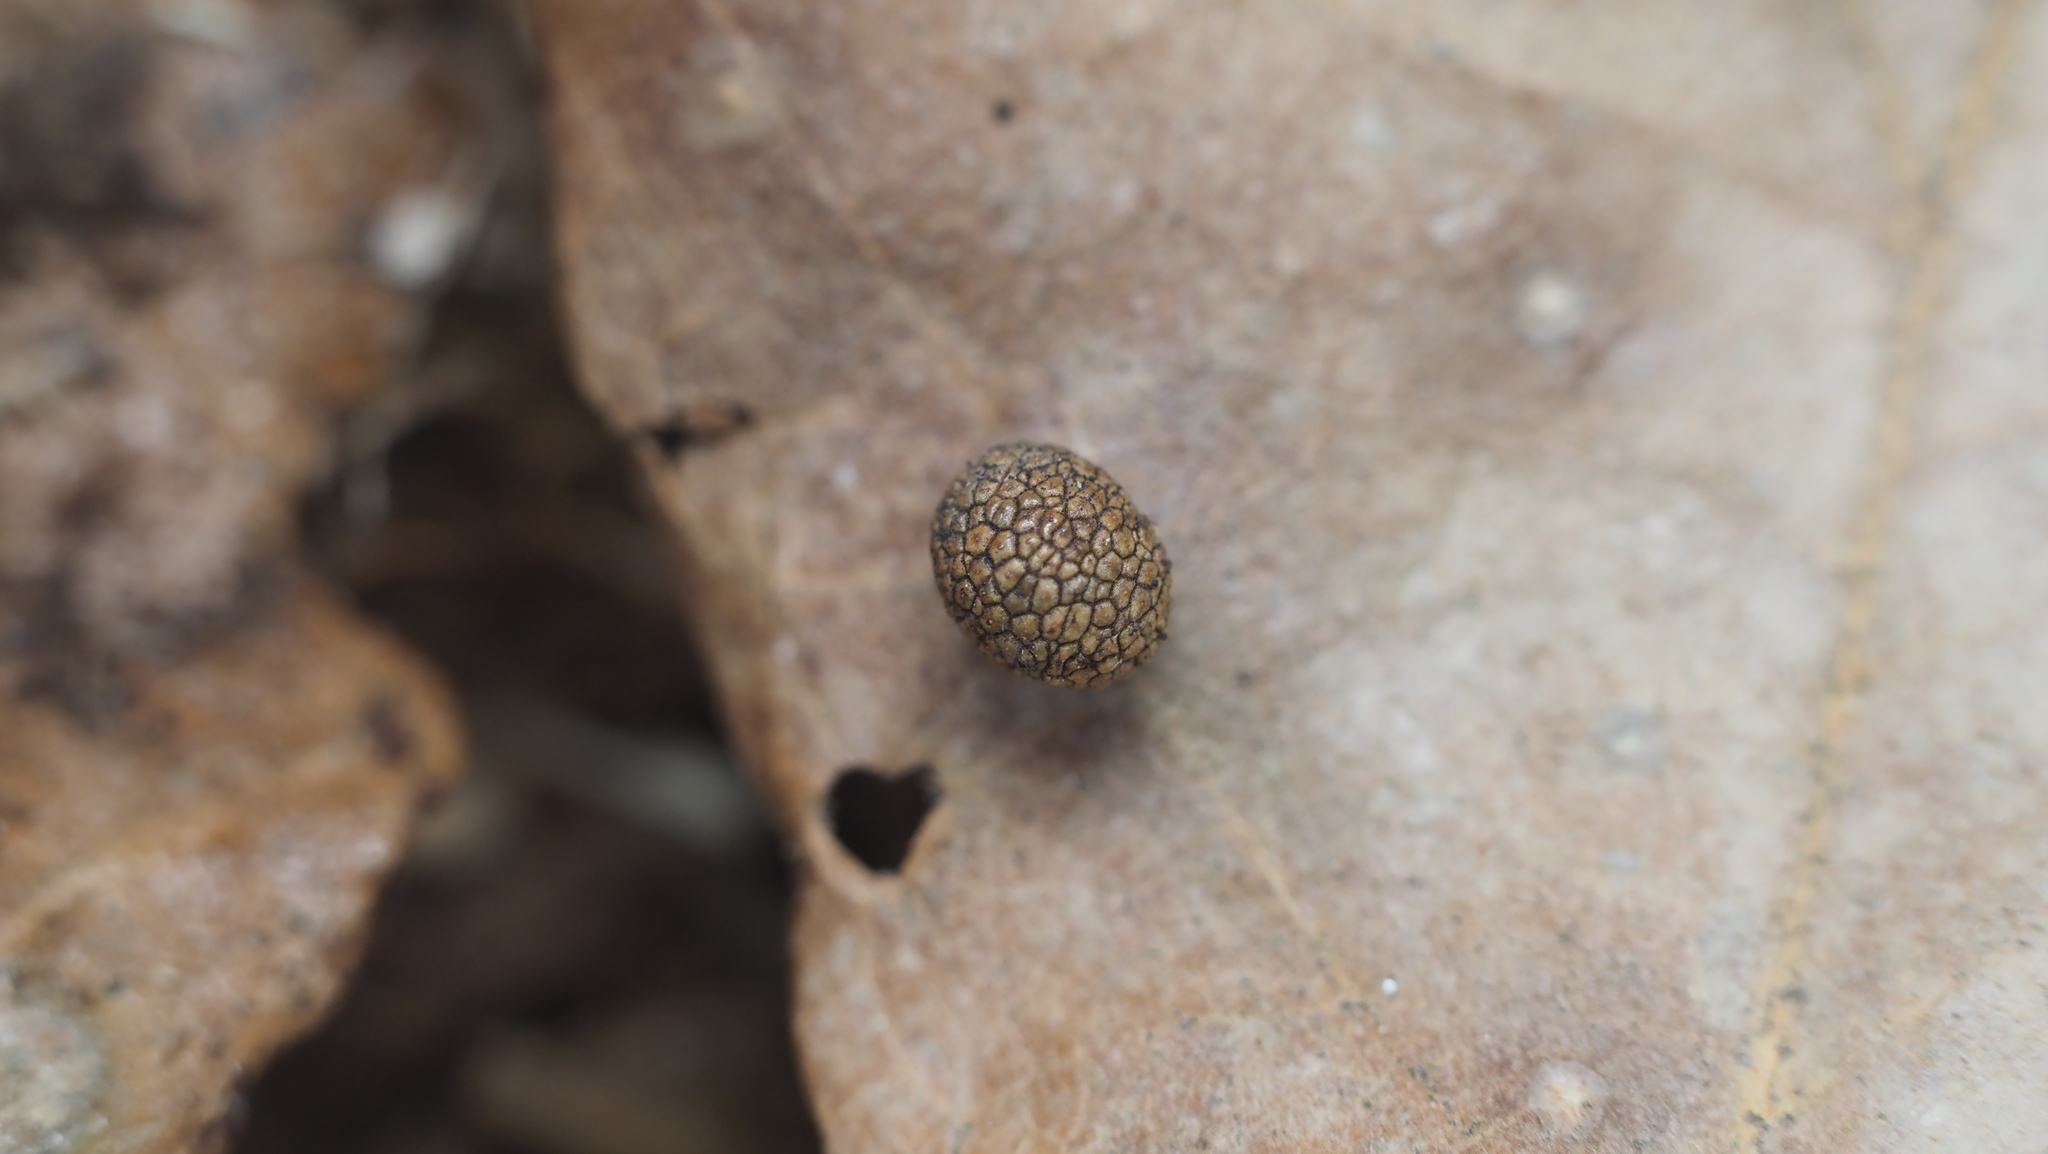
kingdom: Animalia
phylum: Arthropoda
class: Insecta
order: Hymenoptera
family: Cynipidae
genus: Acraspis
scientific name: Acraspis quercushirta
